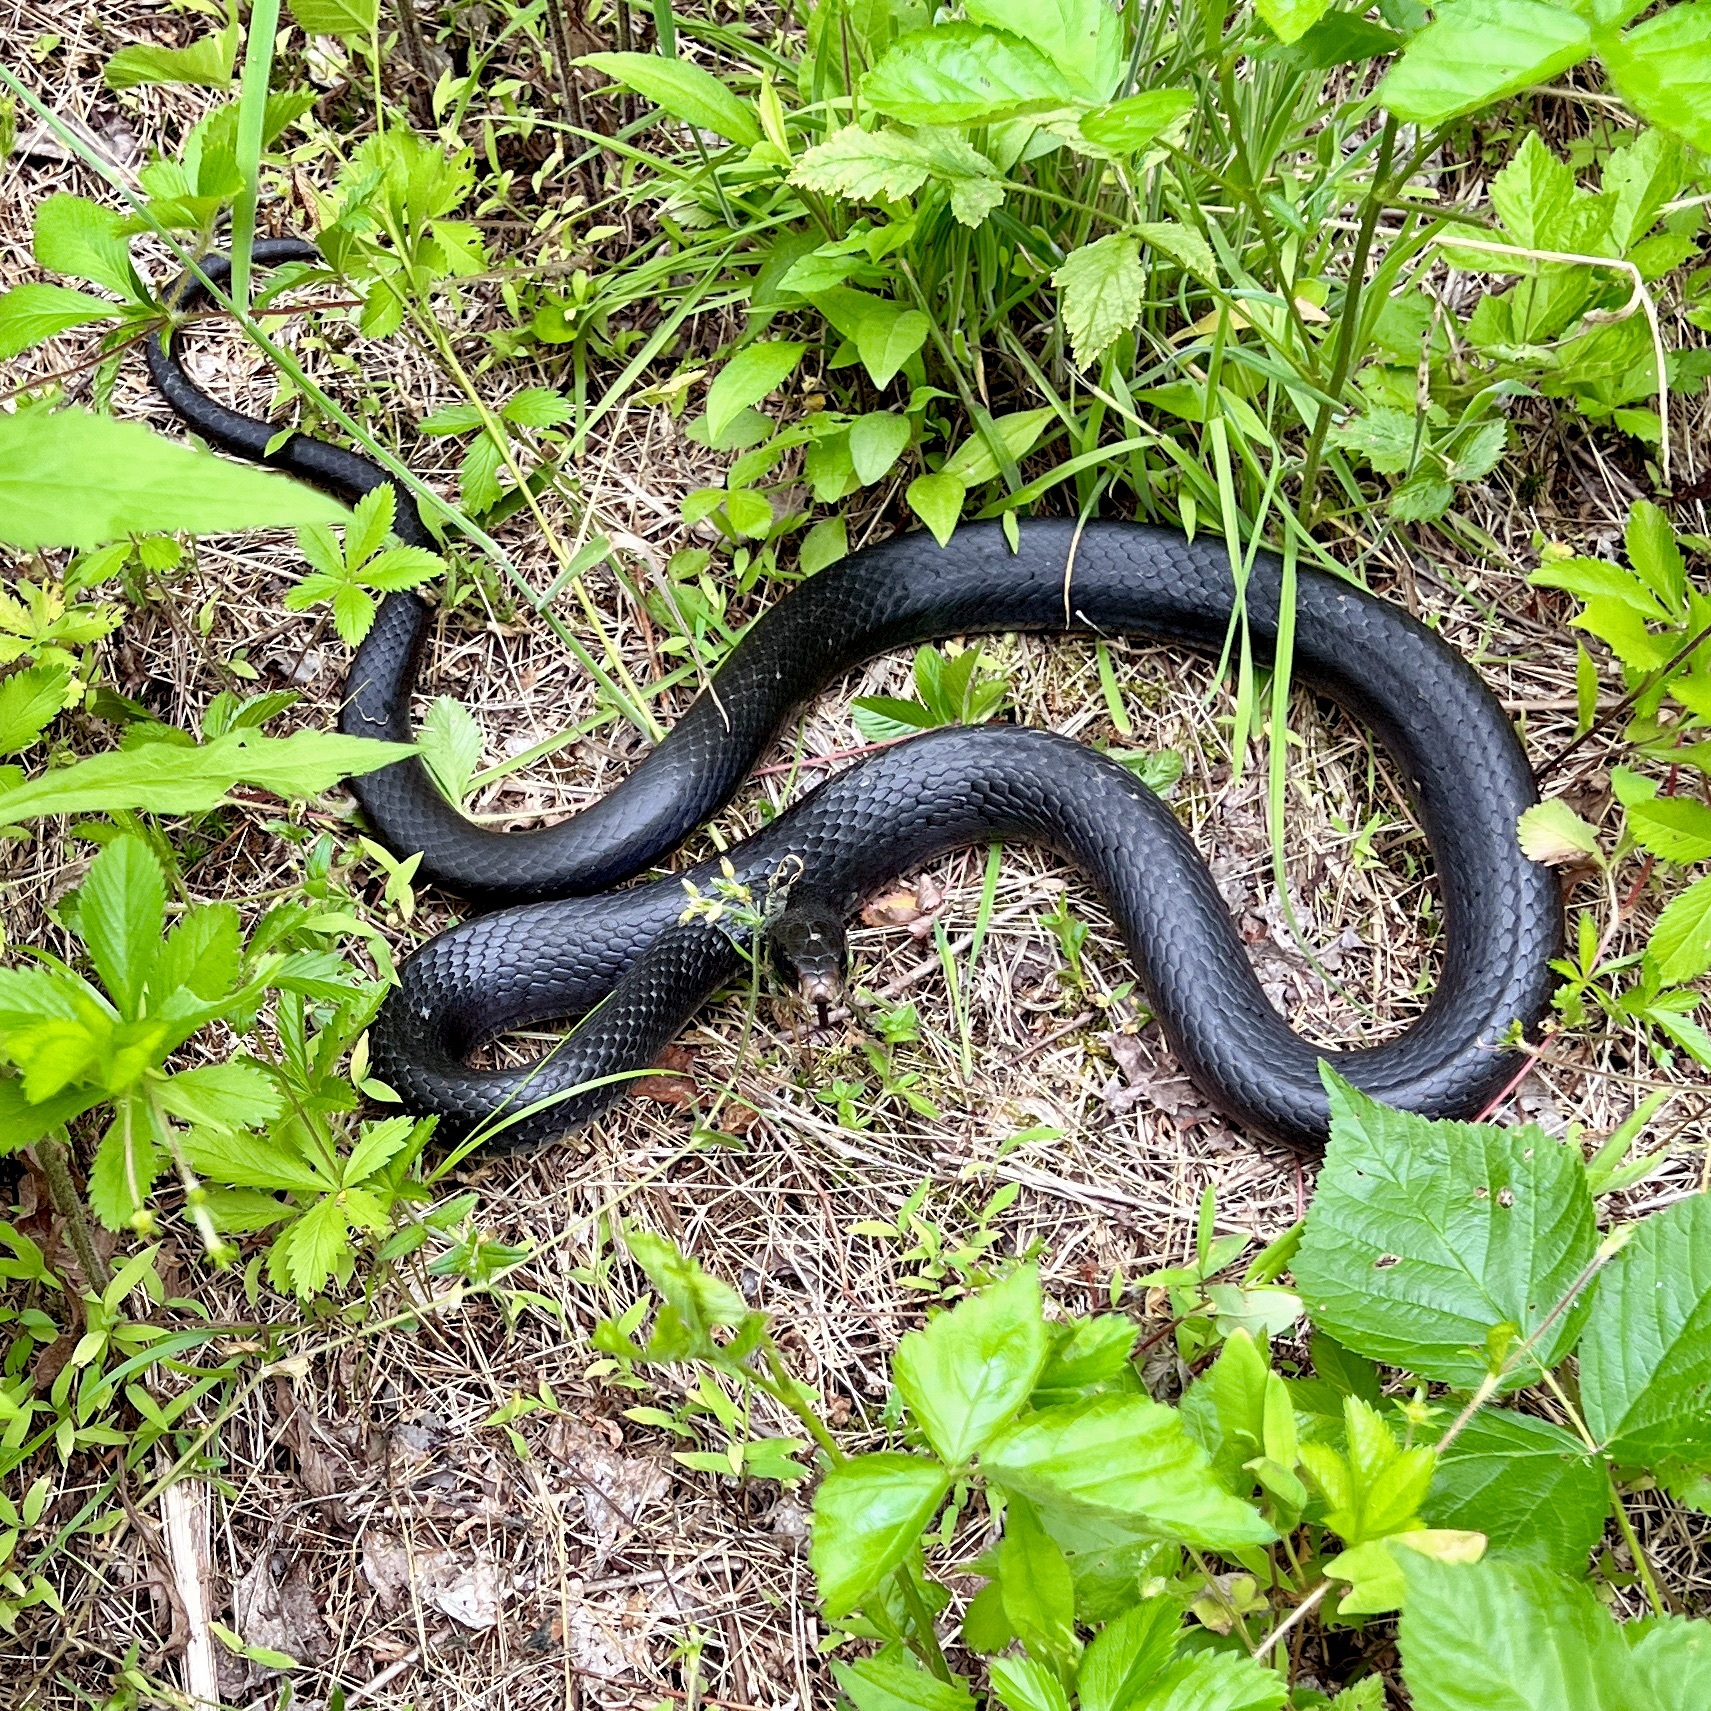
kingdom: Animalia
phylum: Chordata
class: Squamata
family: Colubridae
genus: Coluber
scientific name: Coluber constrictor
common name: Eastern racer
